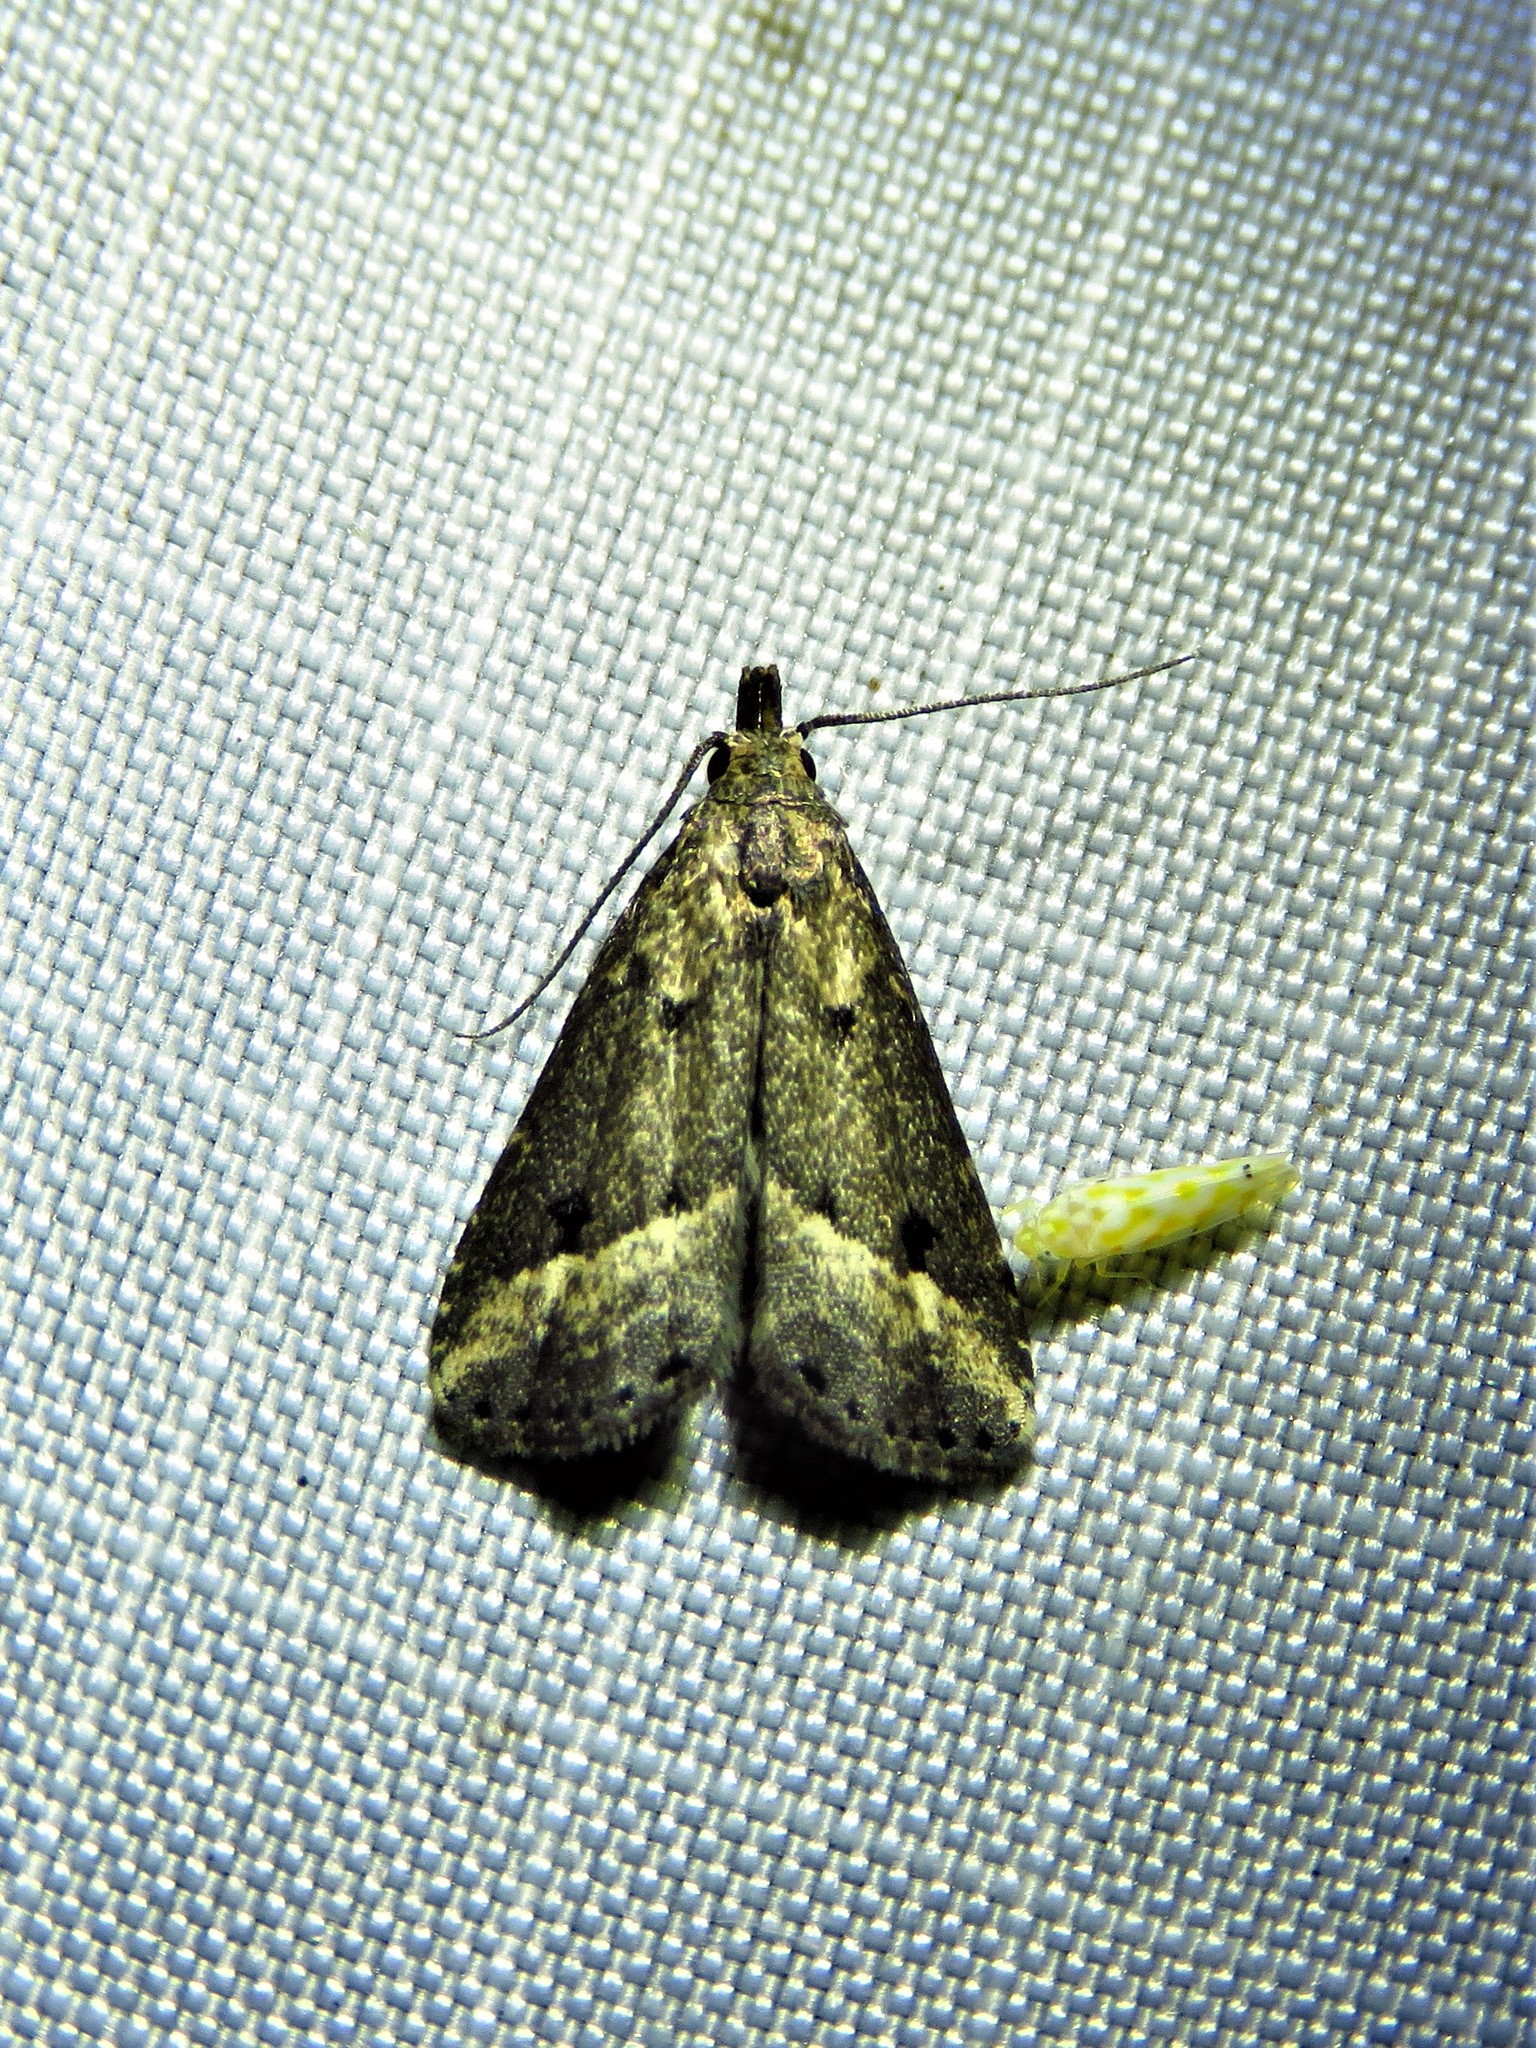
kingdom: Animalia
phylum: Arthropoda
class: Insecta
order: Lepidoptera
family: Erebidae
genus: Schrankia
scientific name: Schrankia
